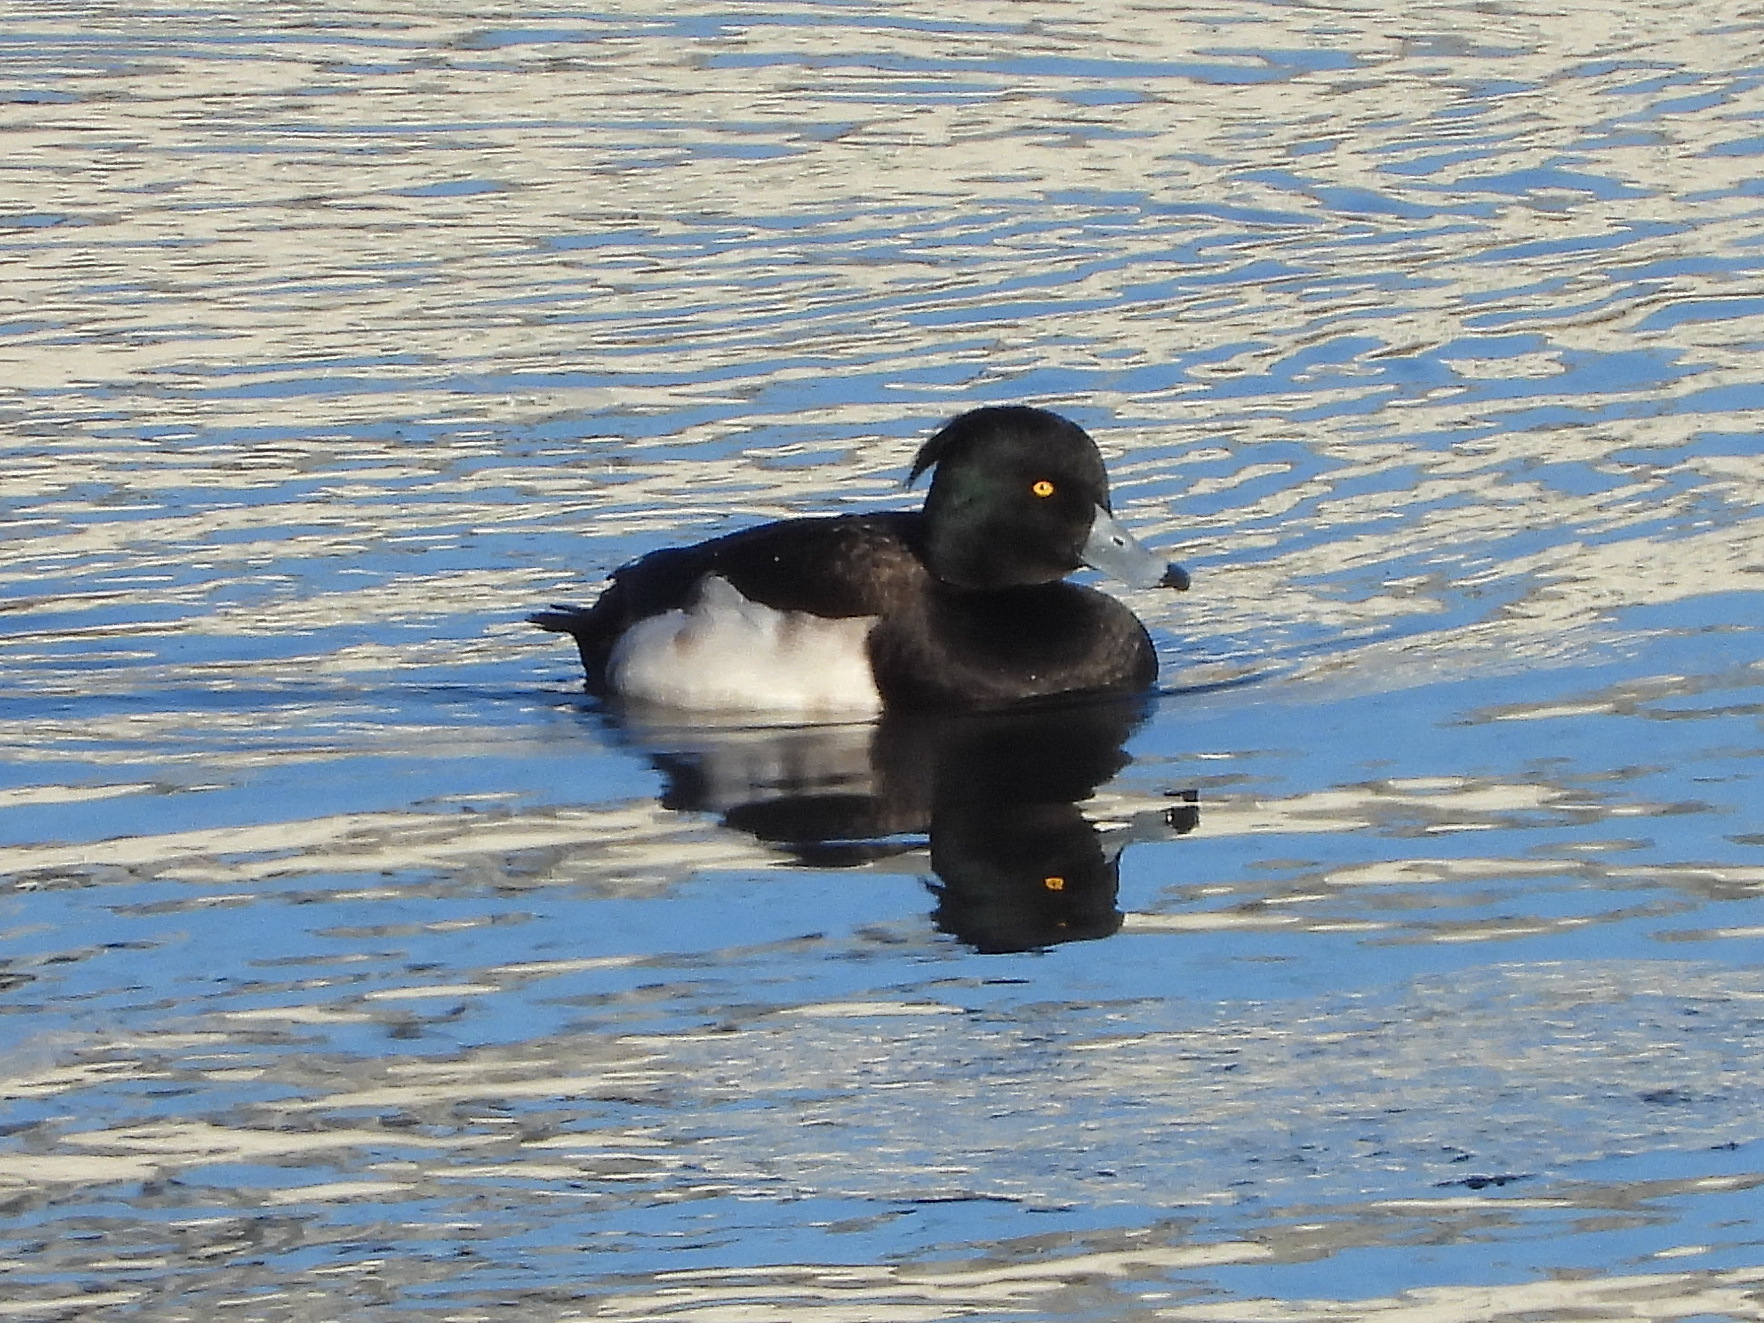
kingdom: Animalia
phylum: Chordata
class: Aves
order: Anseriformes
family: Anatidae
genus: Aythya
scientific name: Aythya fuligula
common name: Tufted duck
